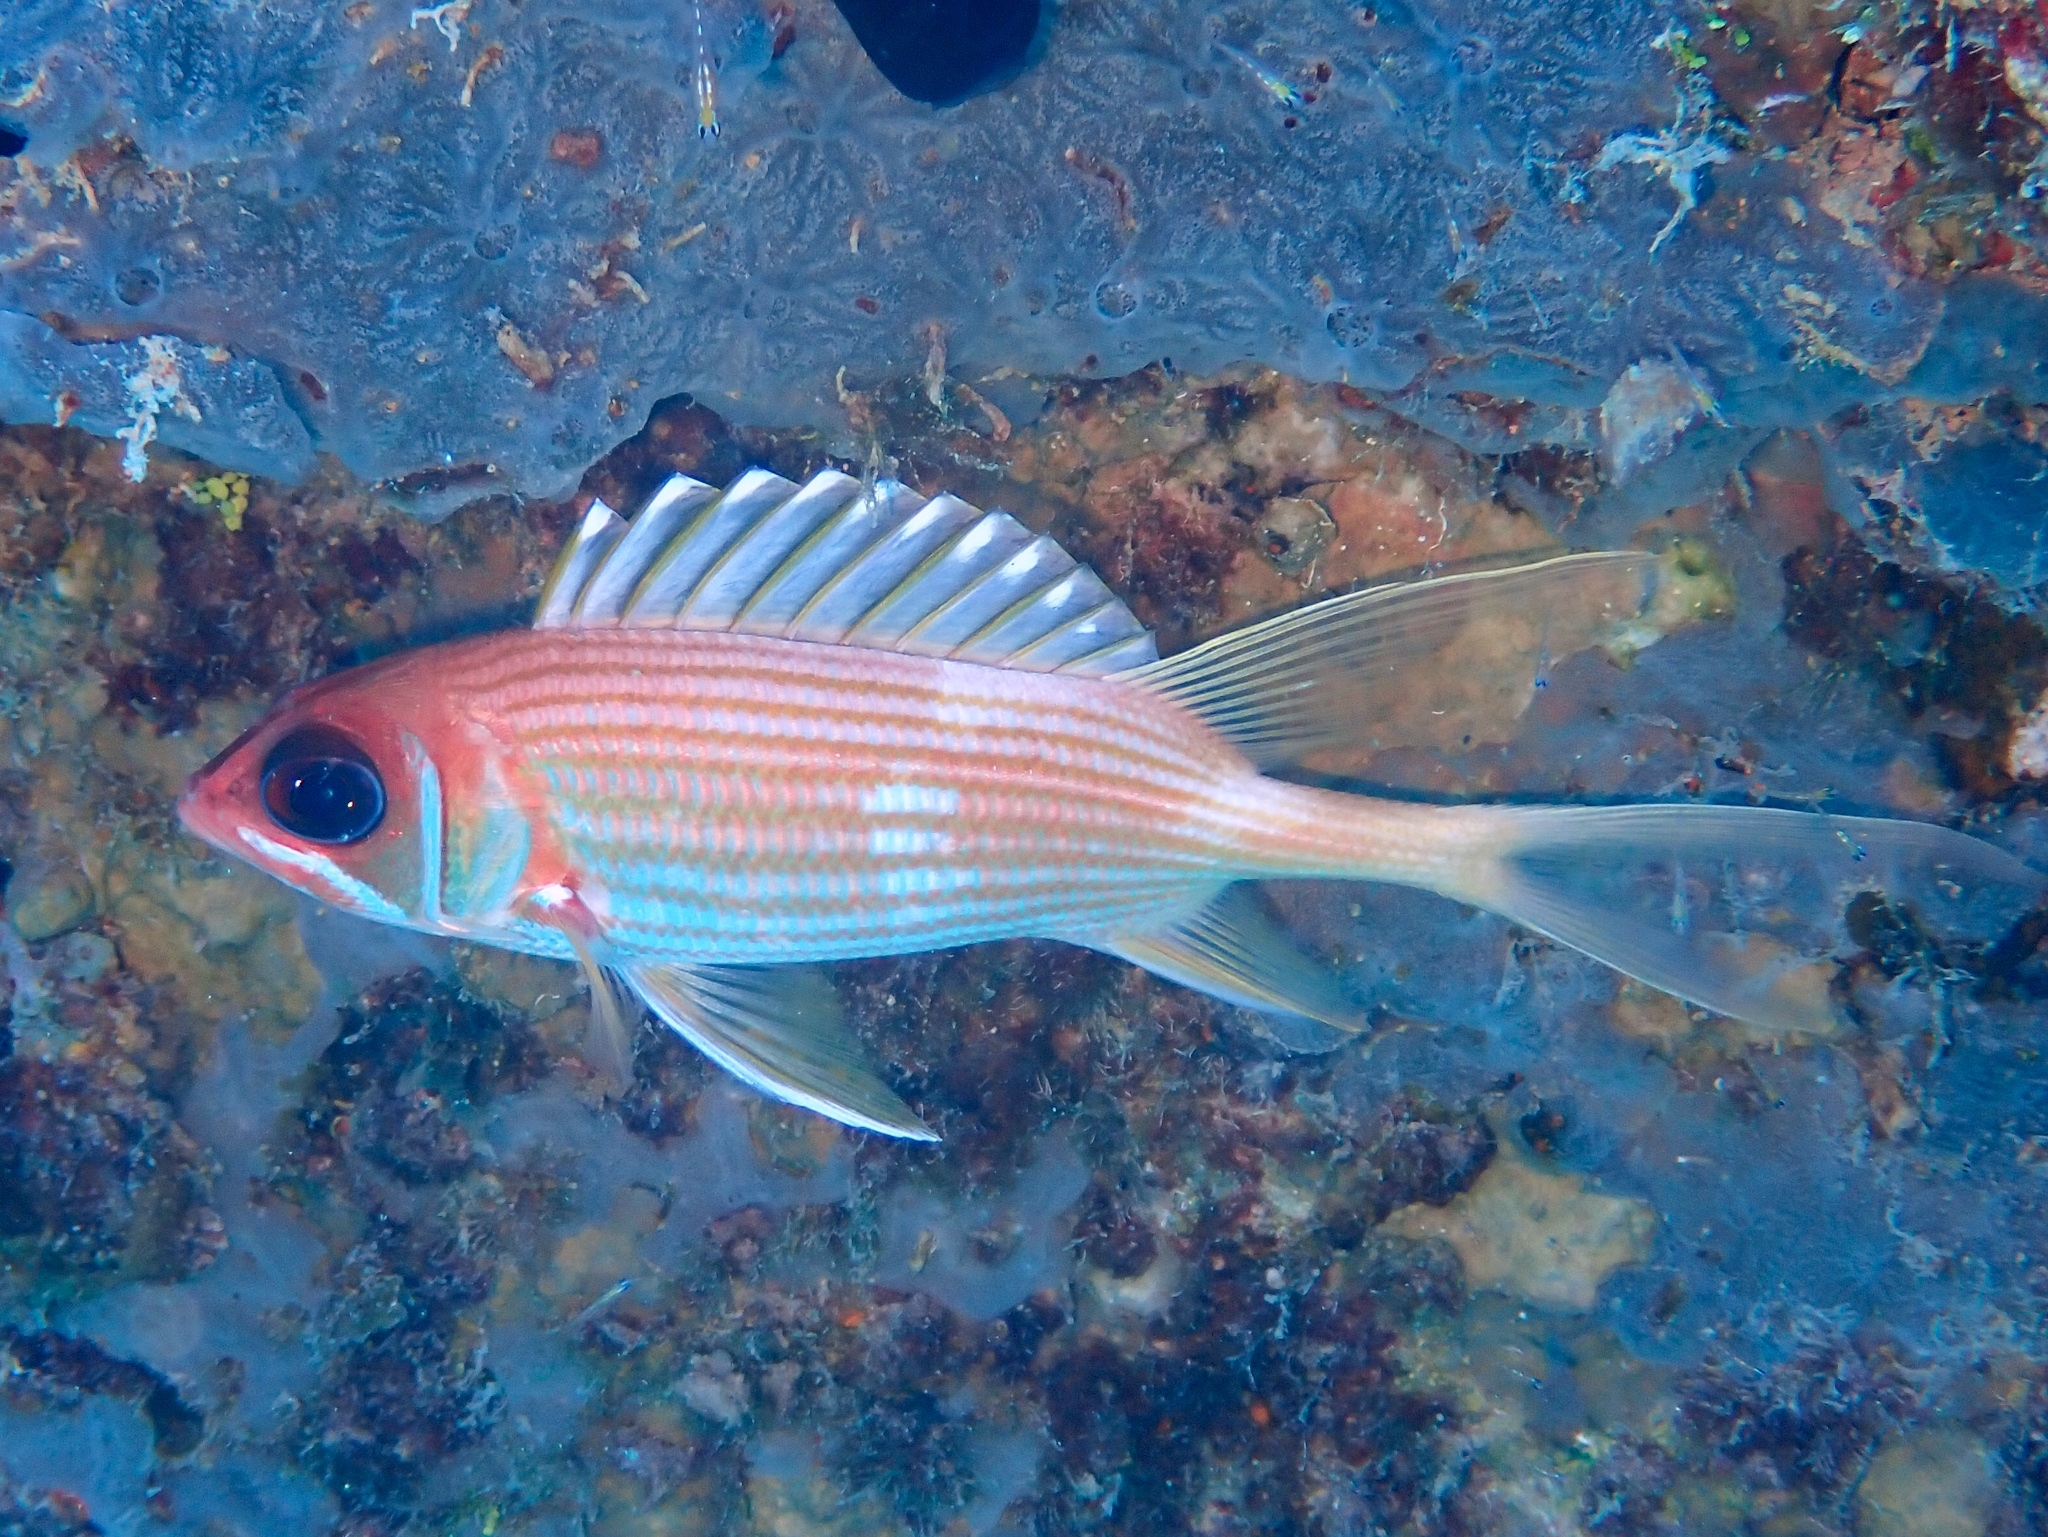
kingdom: Animalia
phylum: Chordata
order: Beryciformes
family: Holocentridae
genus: Holocentrus
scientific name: Holocentrus rufus
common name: Longspine squirrelfish
